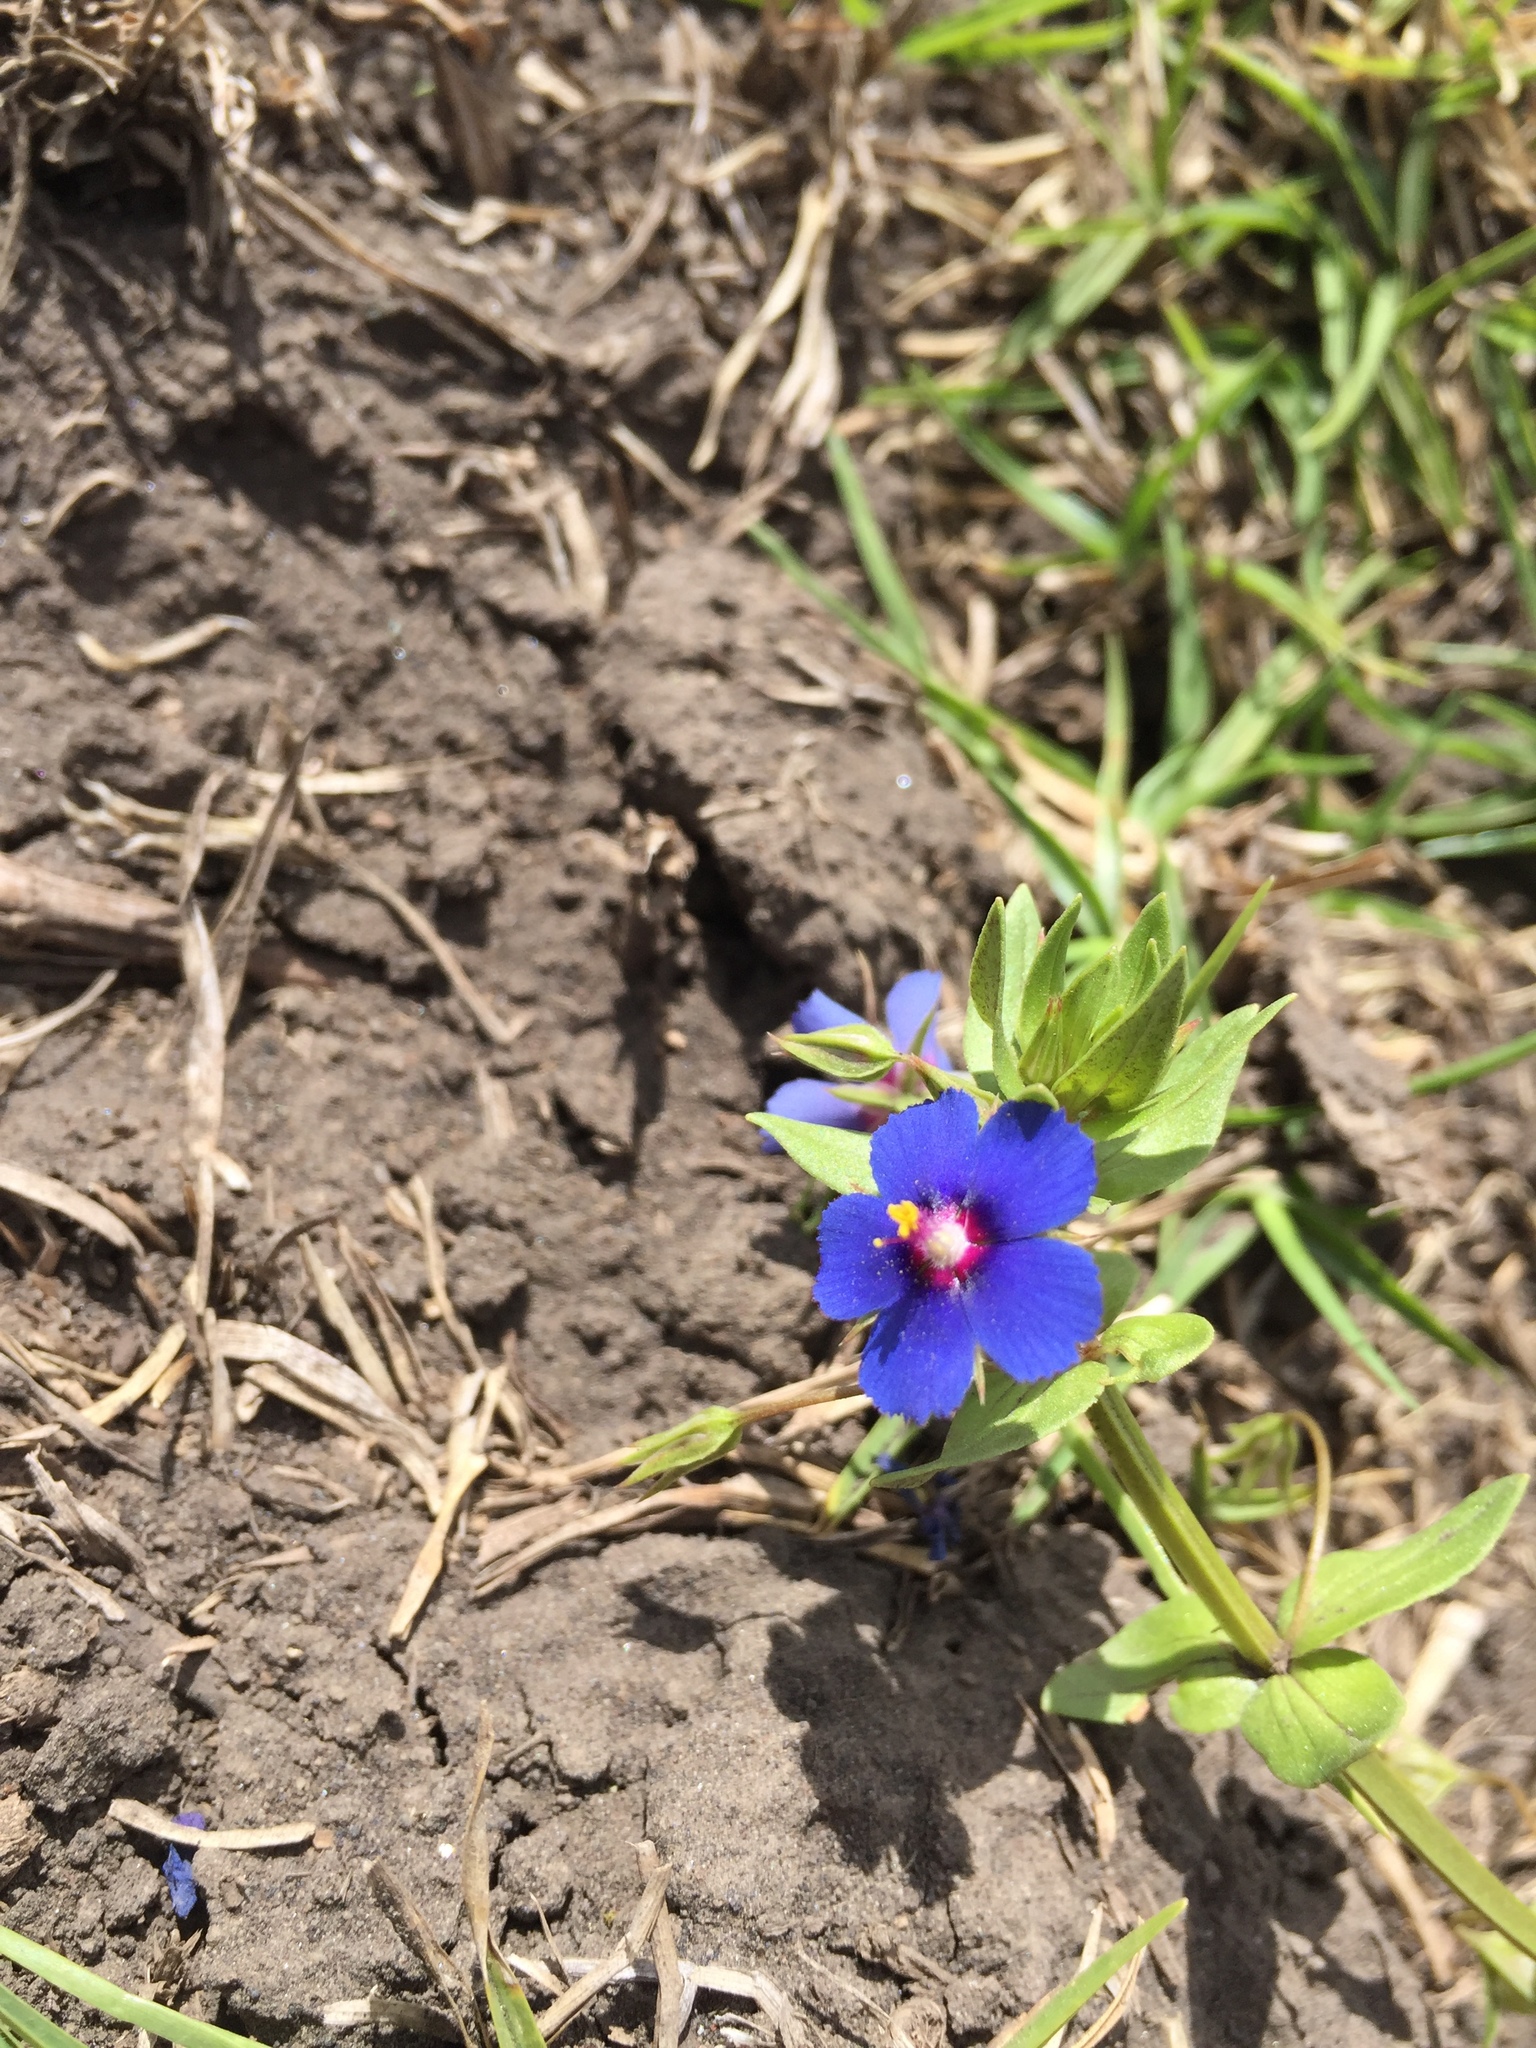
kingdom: Plantae
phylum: Tracheophyta
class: Magnoliopsida
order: Ericales
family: Primulaceae
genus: Lysimachia
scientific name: Lysimachia arvensis
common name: Scarlet pimpernel
